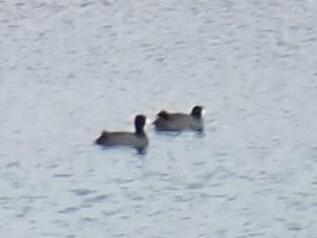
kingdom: Animalia
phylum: Chordata
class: Aves
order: Gruiformes
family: Rallidae
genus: Fulica
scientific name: Fulica americana
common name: American coot
